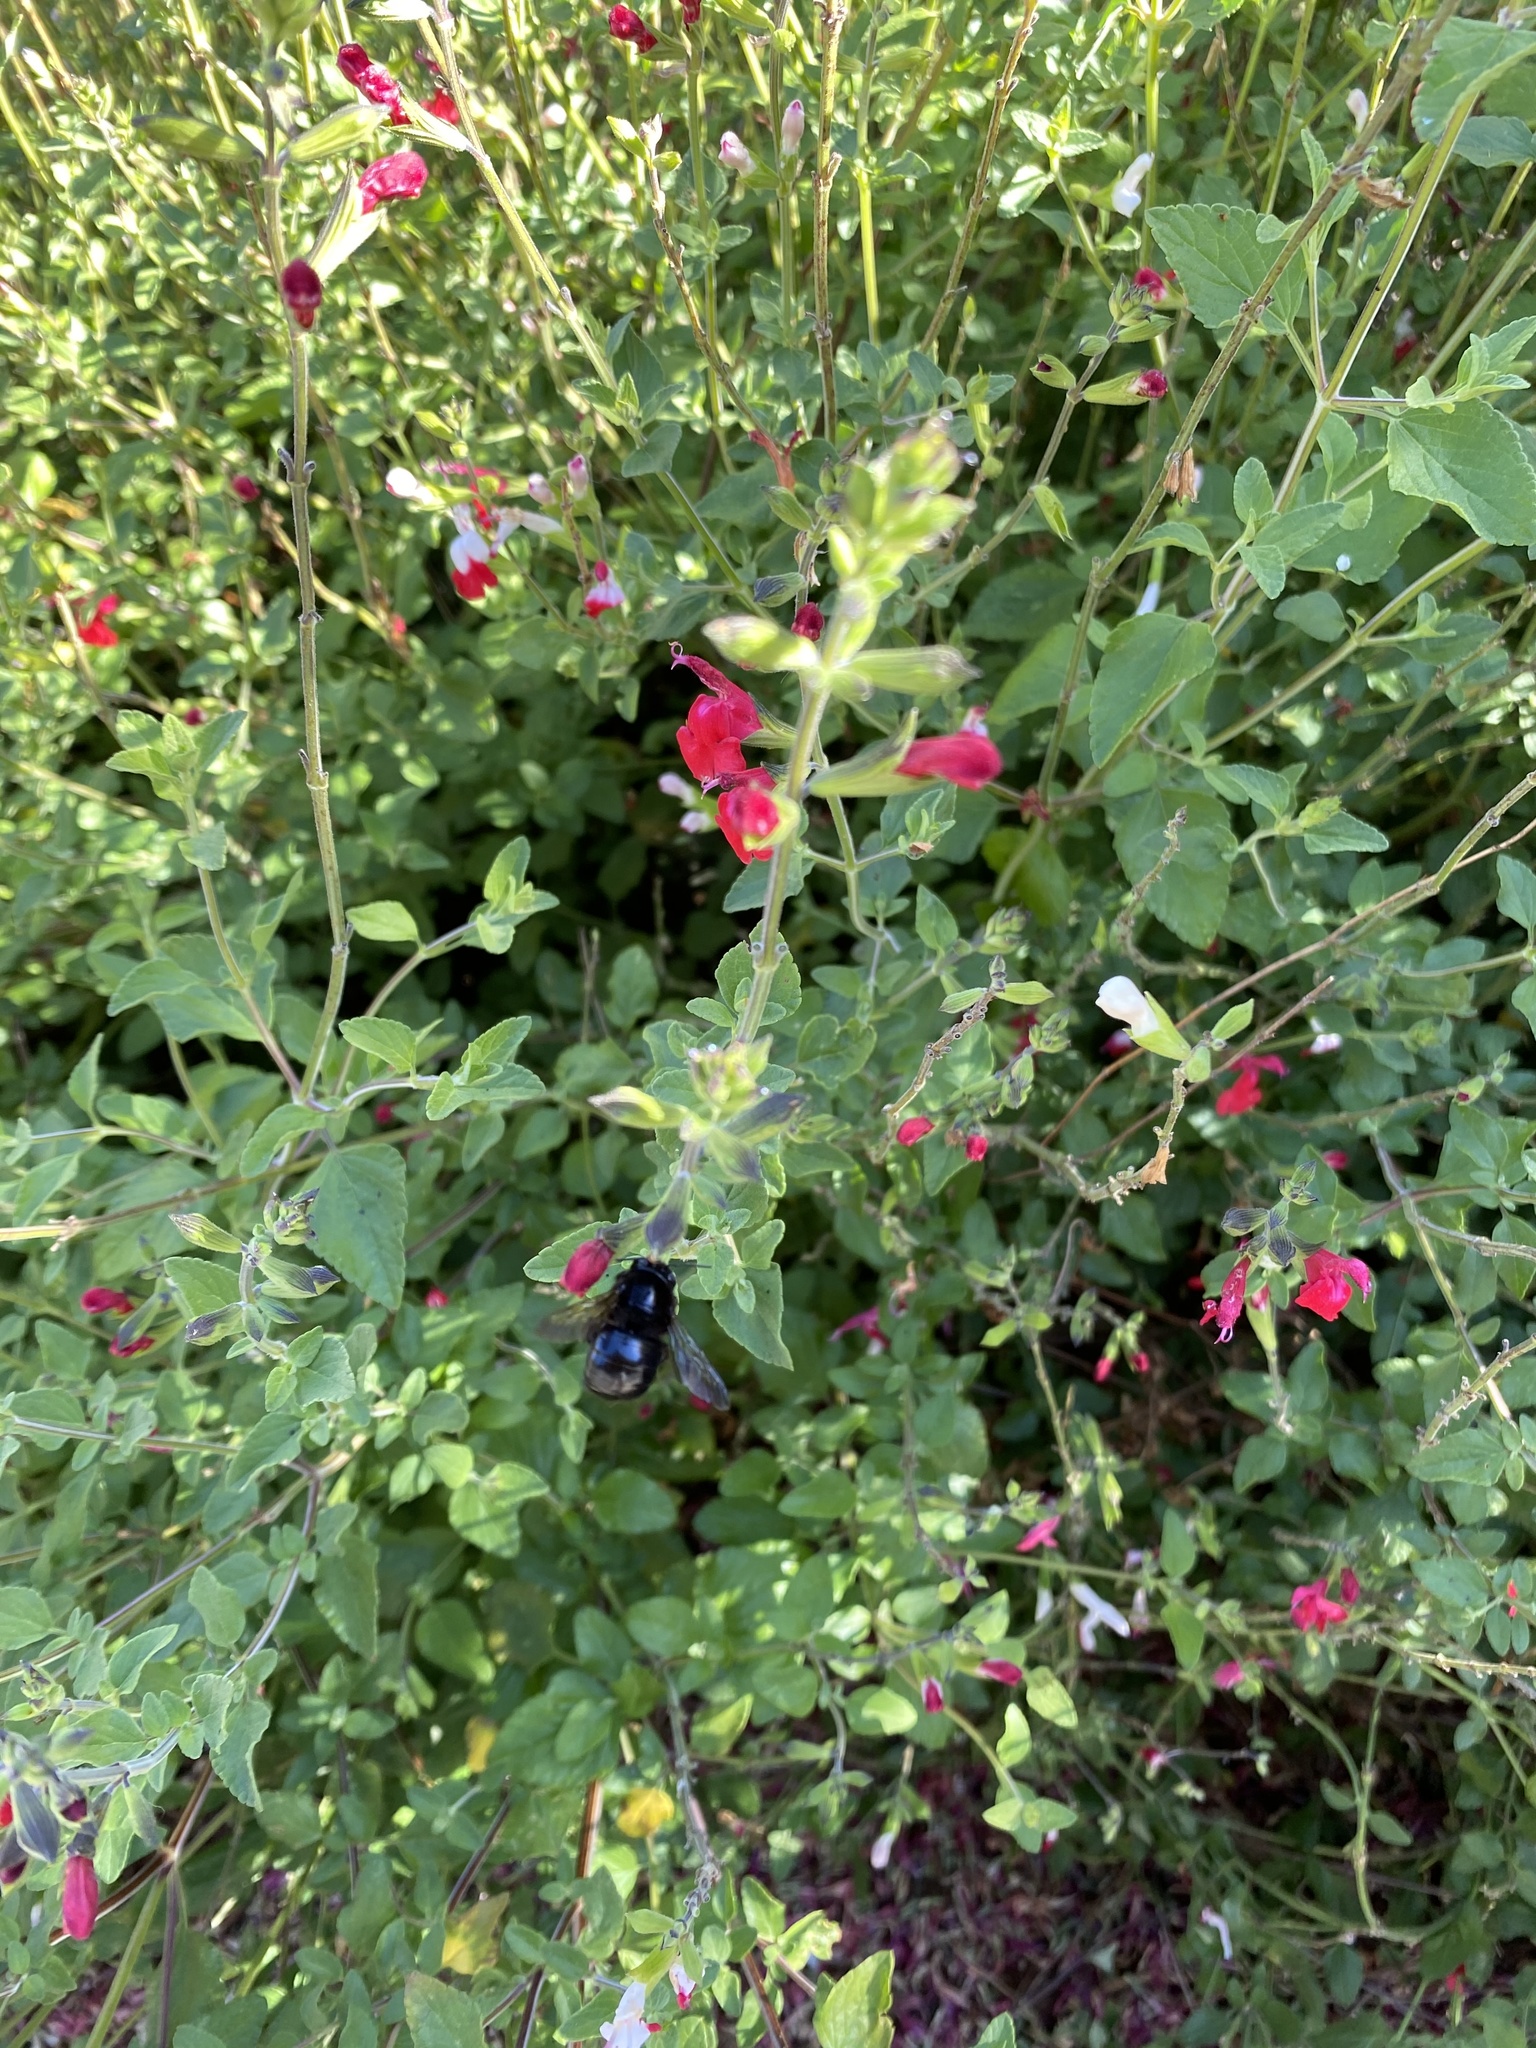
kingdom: Animalia
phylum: Arthropoda
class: Insecta
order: Hymenoptera
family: Apidae
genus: Xylocopa
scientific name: Xylocopa tabaniformis
